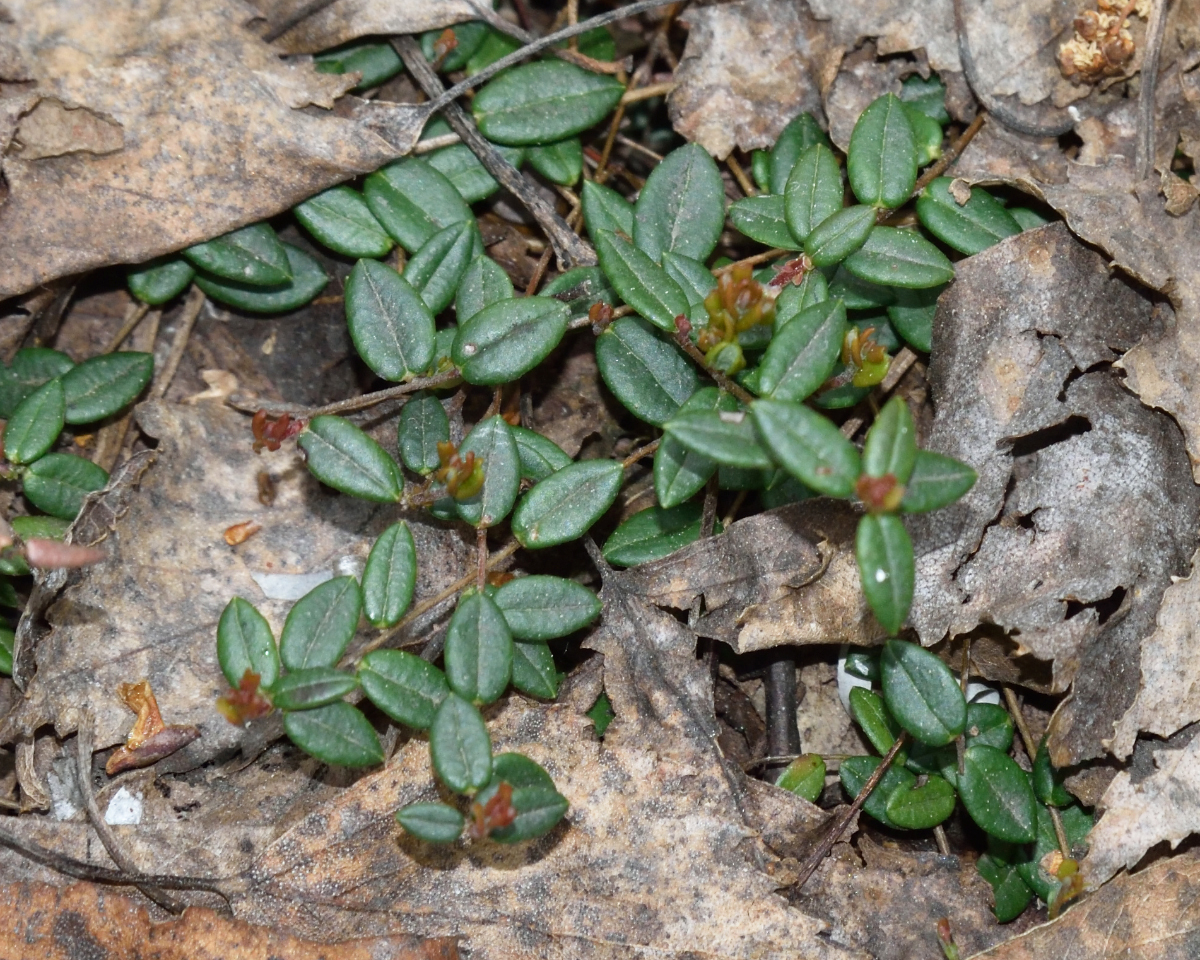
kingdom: Plantae
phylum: Tracheophyta
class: Magnoliopsida
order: Ericales
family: Ericaceae
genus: Vaccinium
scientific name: Vaccinium oxycoccos
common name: Cranberry
